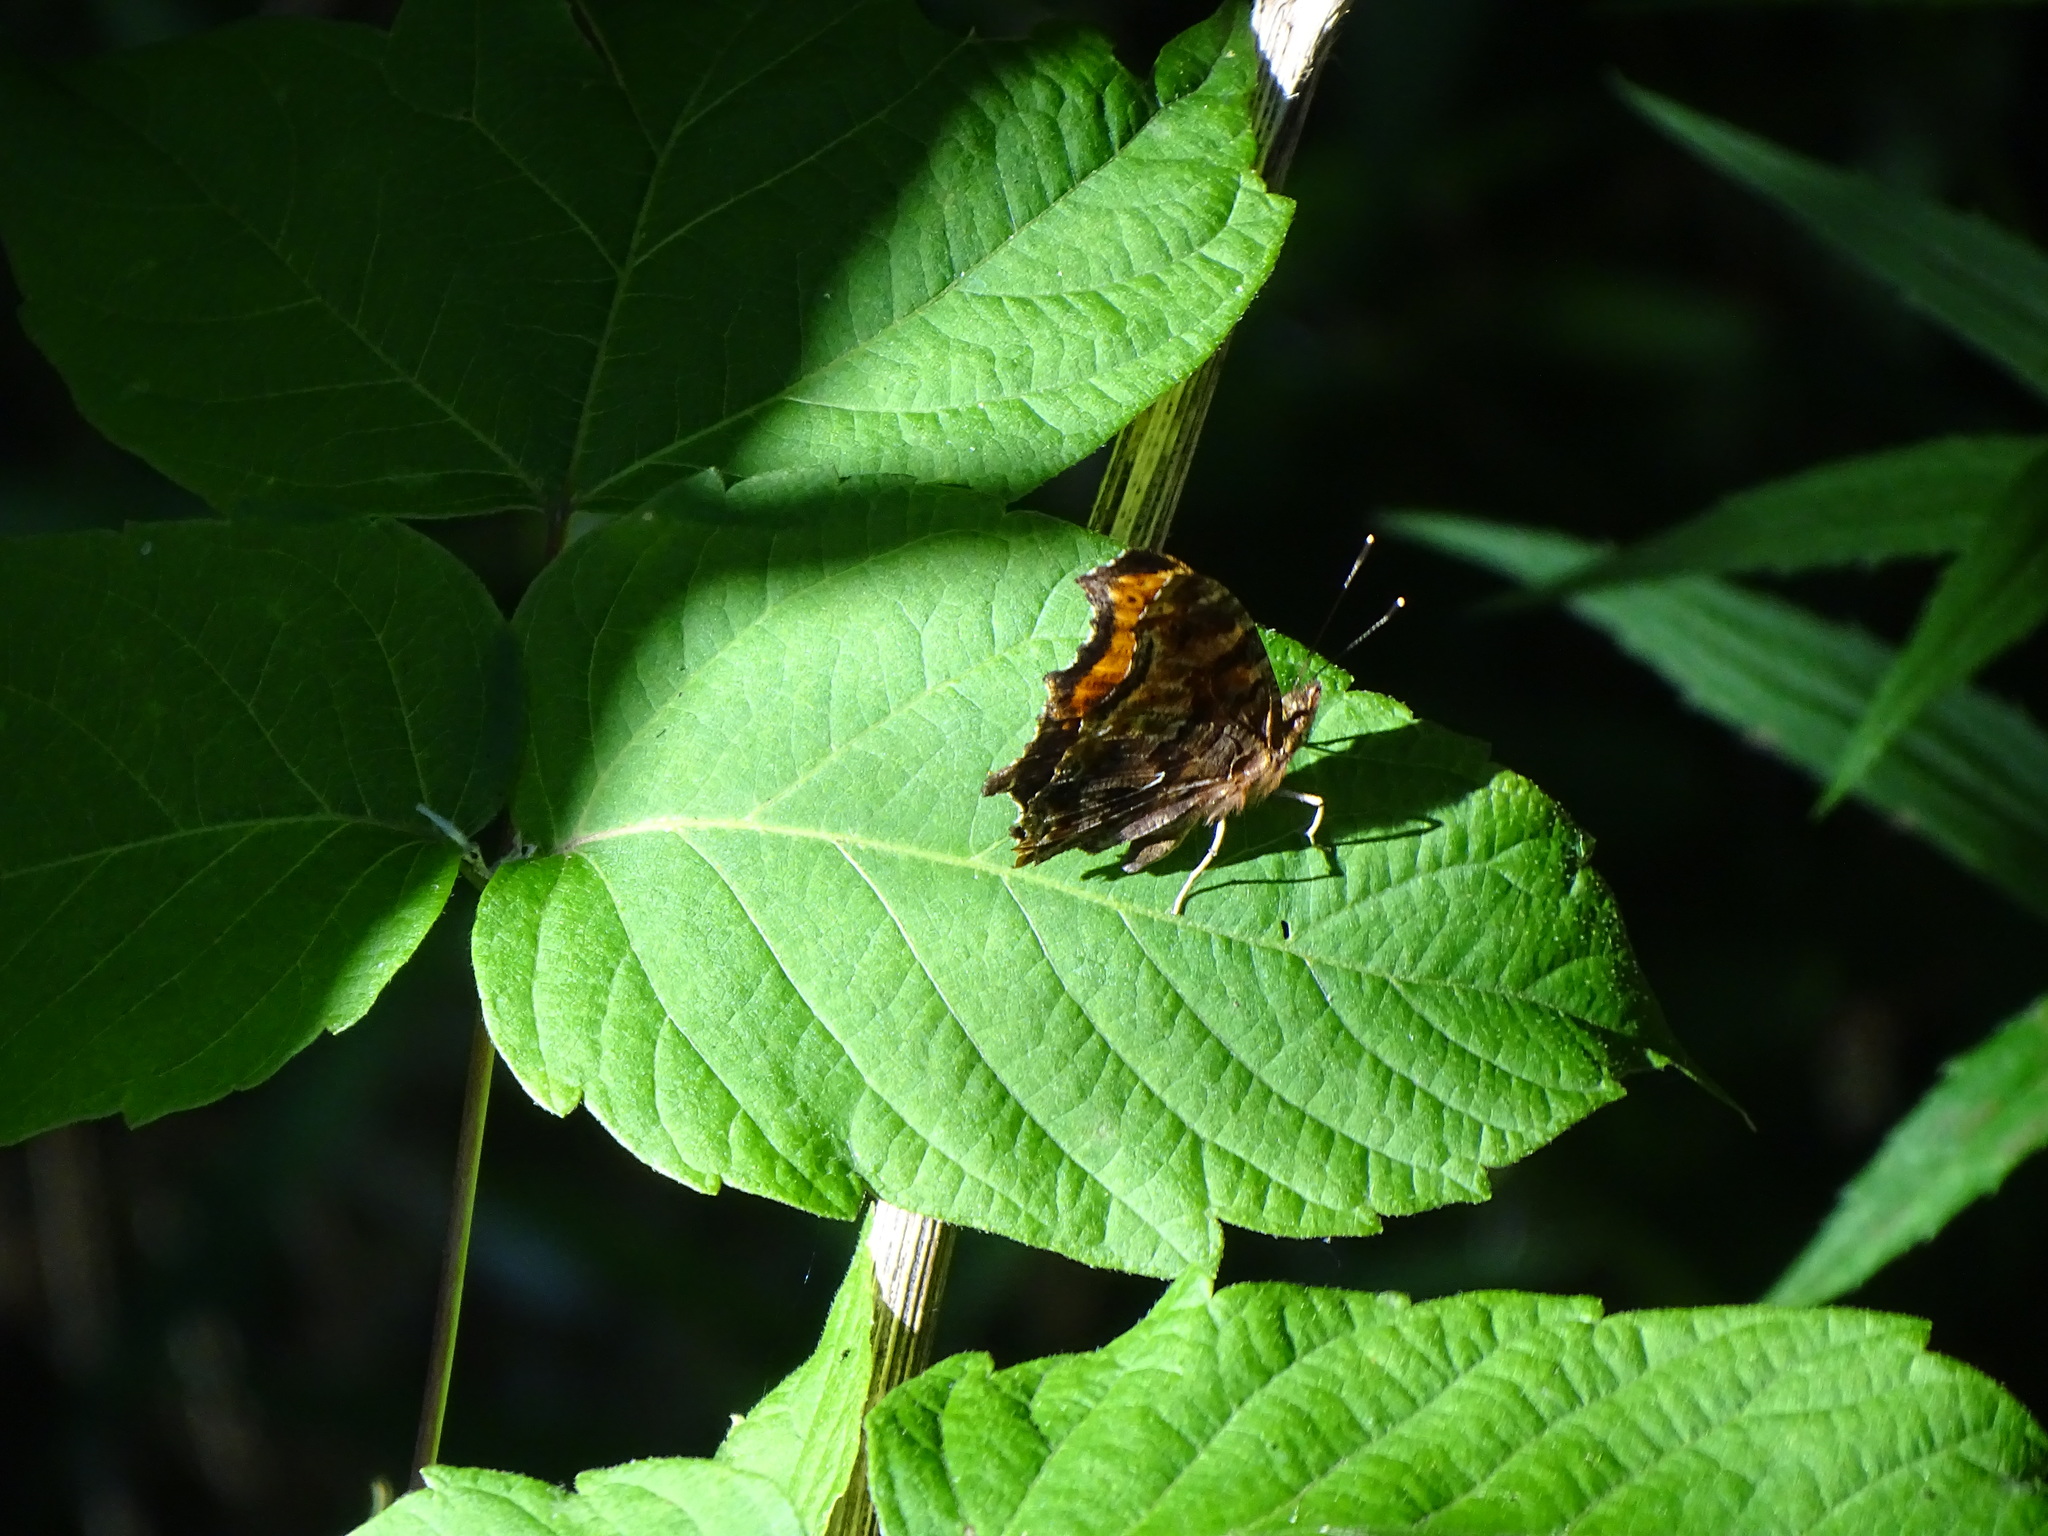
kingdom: Animalia
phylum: Arthropoda
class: Insecta
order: Lepidoptera
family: Nymphalidae
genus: Polygonia
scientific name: Polygonia comma
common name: Eastern comma
